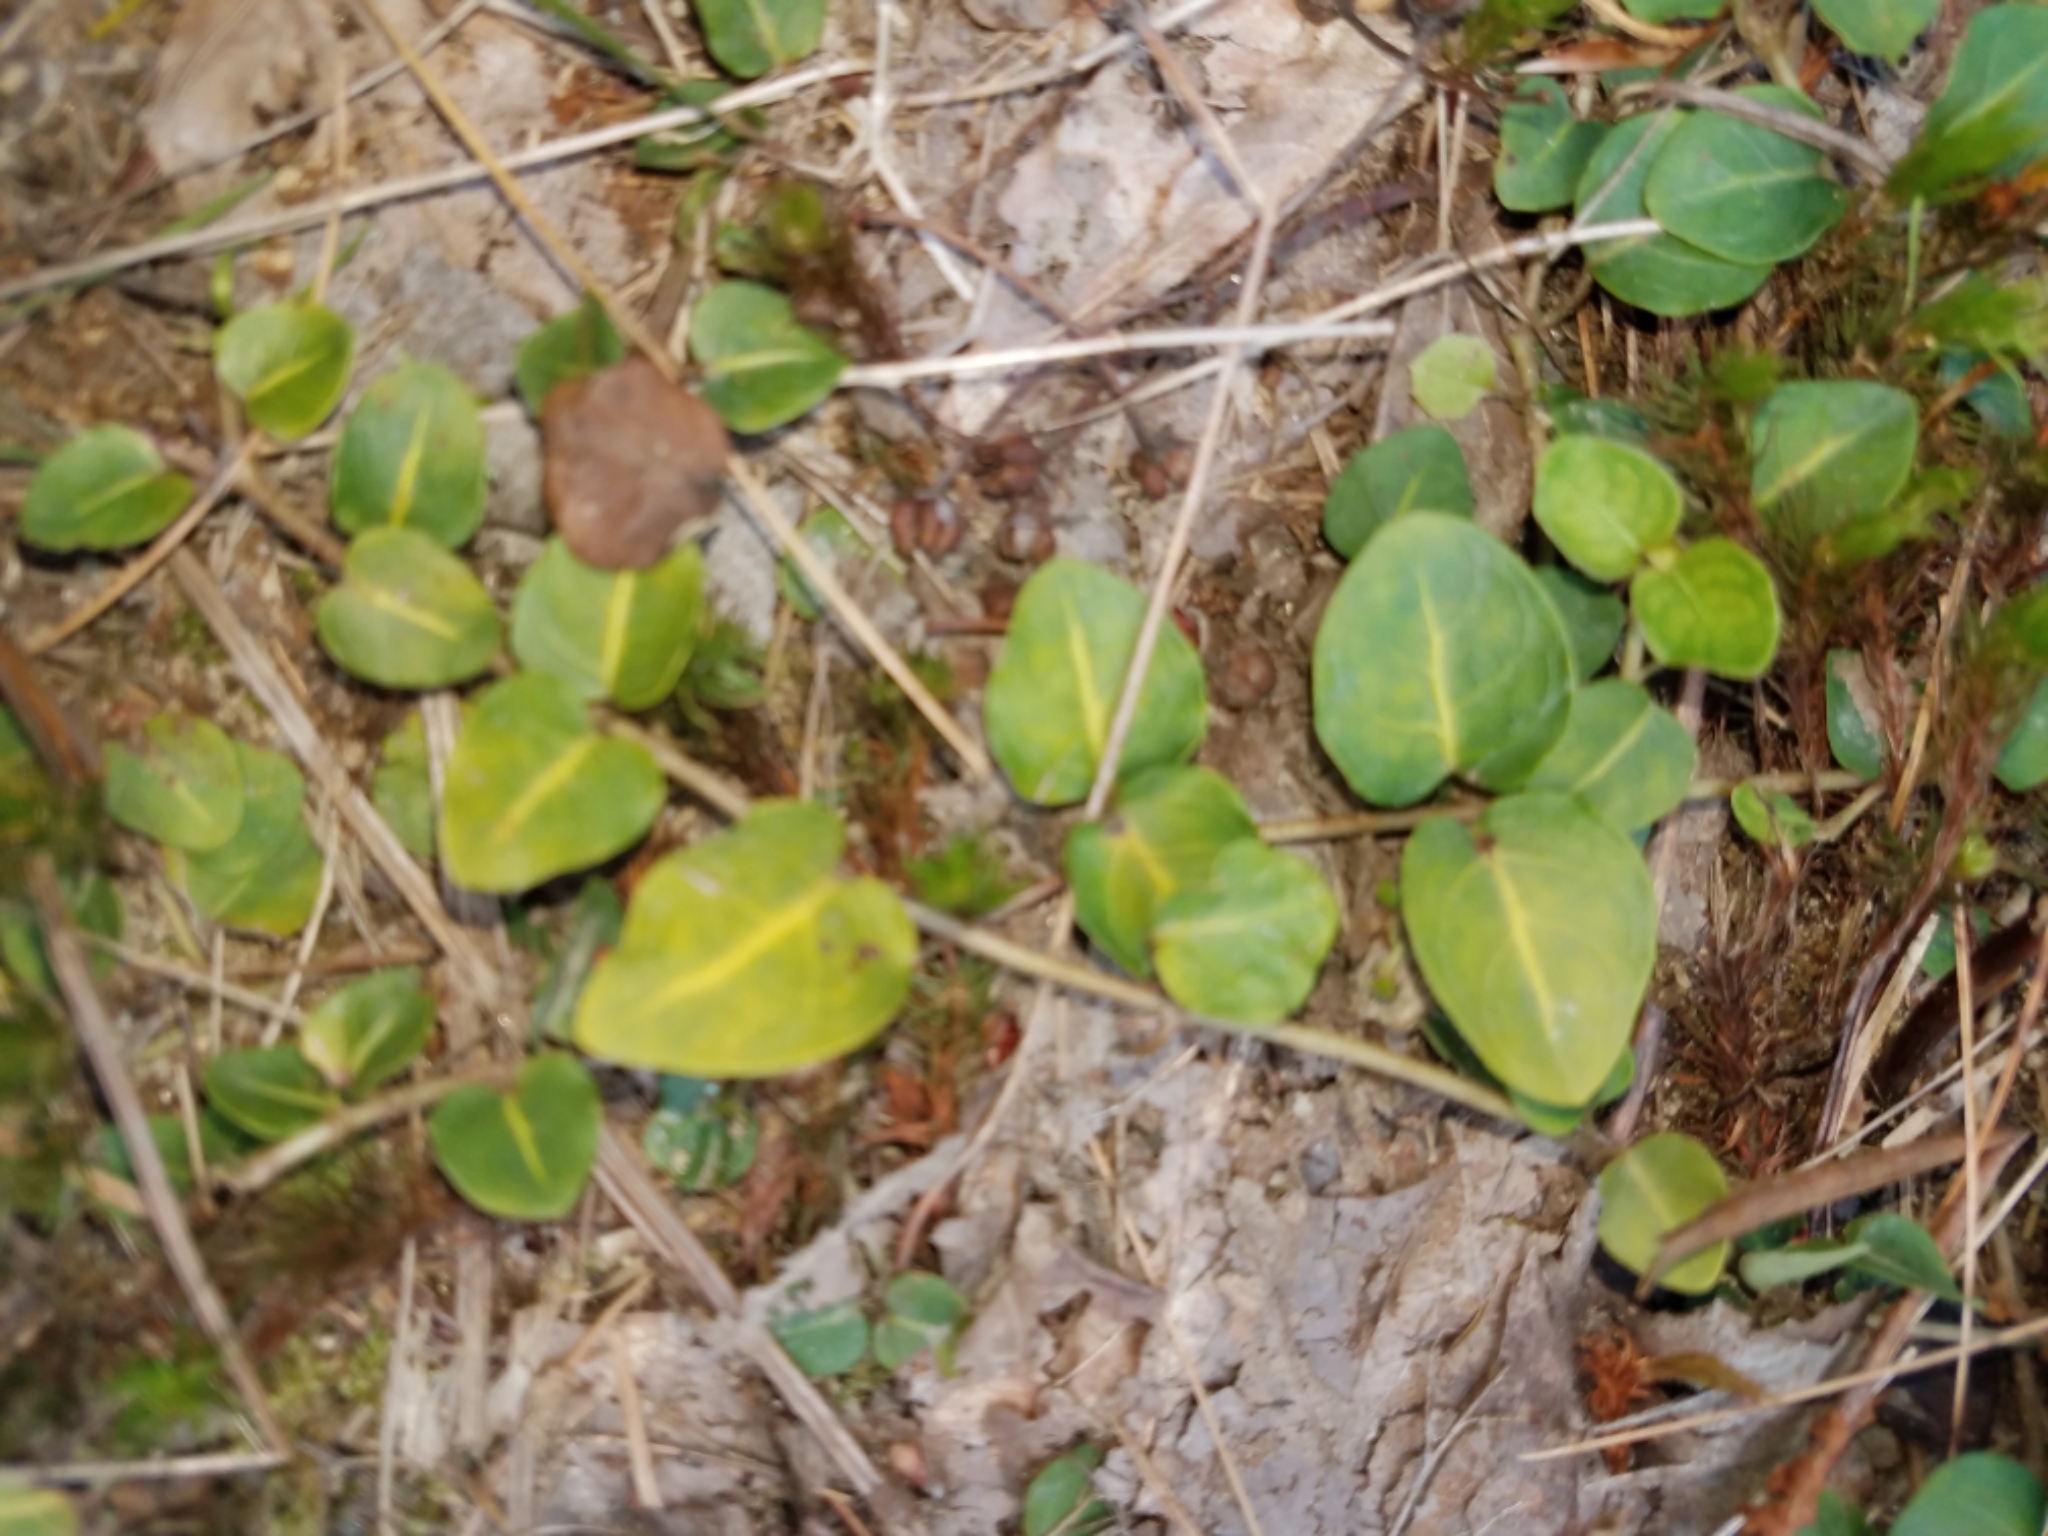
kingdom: Plantae
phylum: Tracheophyta
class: Magnoliopsida
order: Gentianales
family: Rubiaceae
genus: Mitchella
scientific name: Mitchella repens
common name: Partridge-berry
